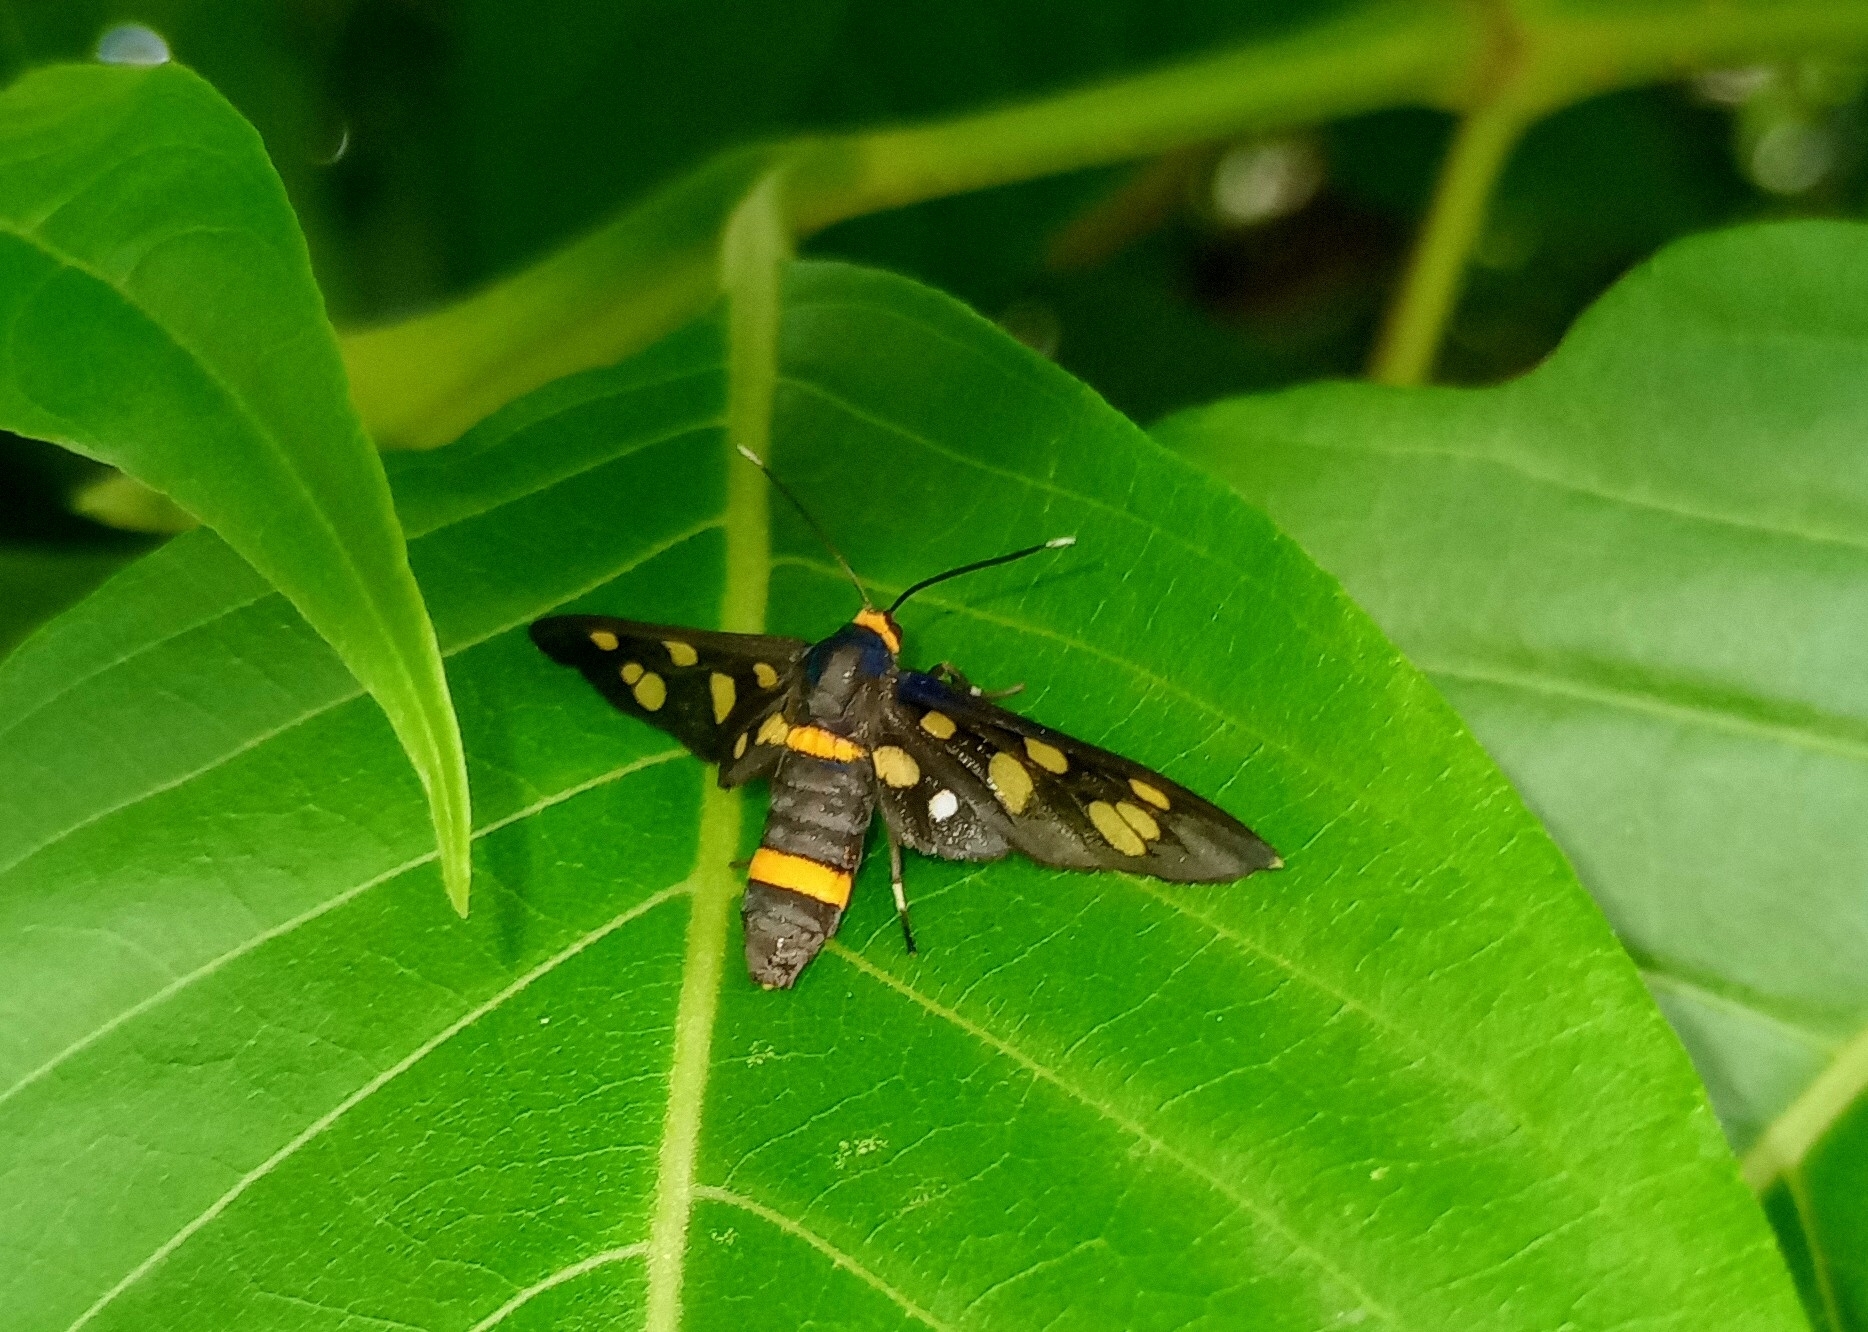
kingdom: Animalia
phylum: Arthropoda
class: Insecta
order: Lepidoptera
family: Erebidae
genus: Amata
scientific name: Amata cyssea
